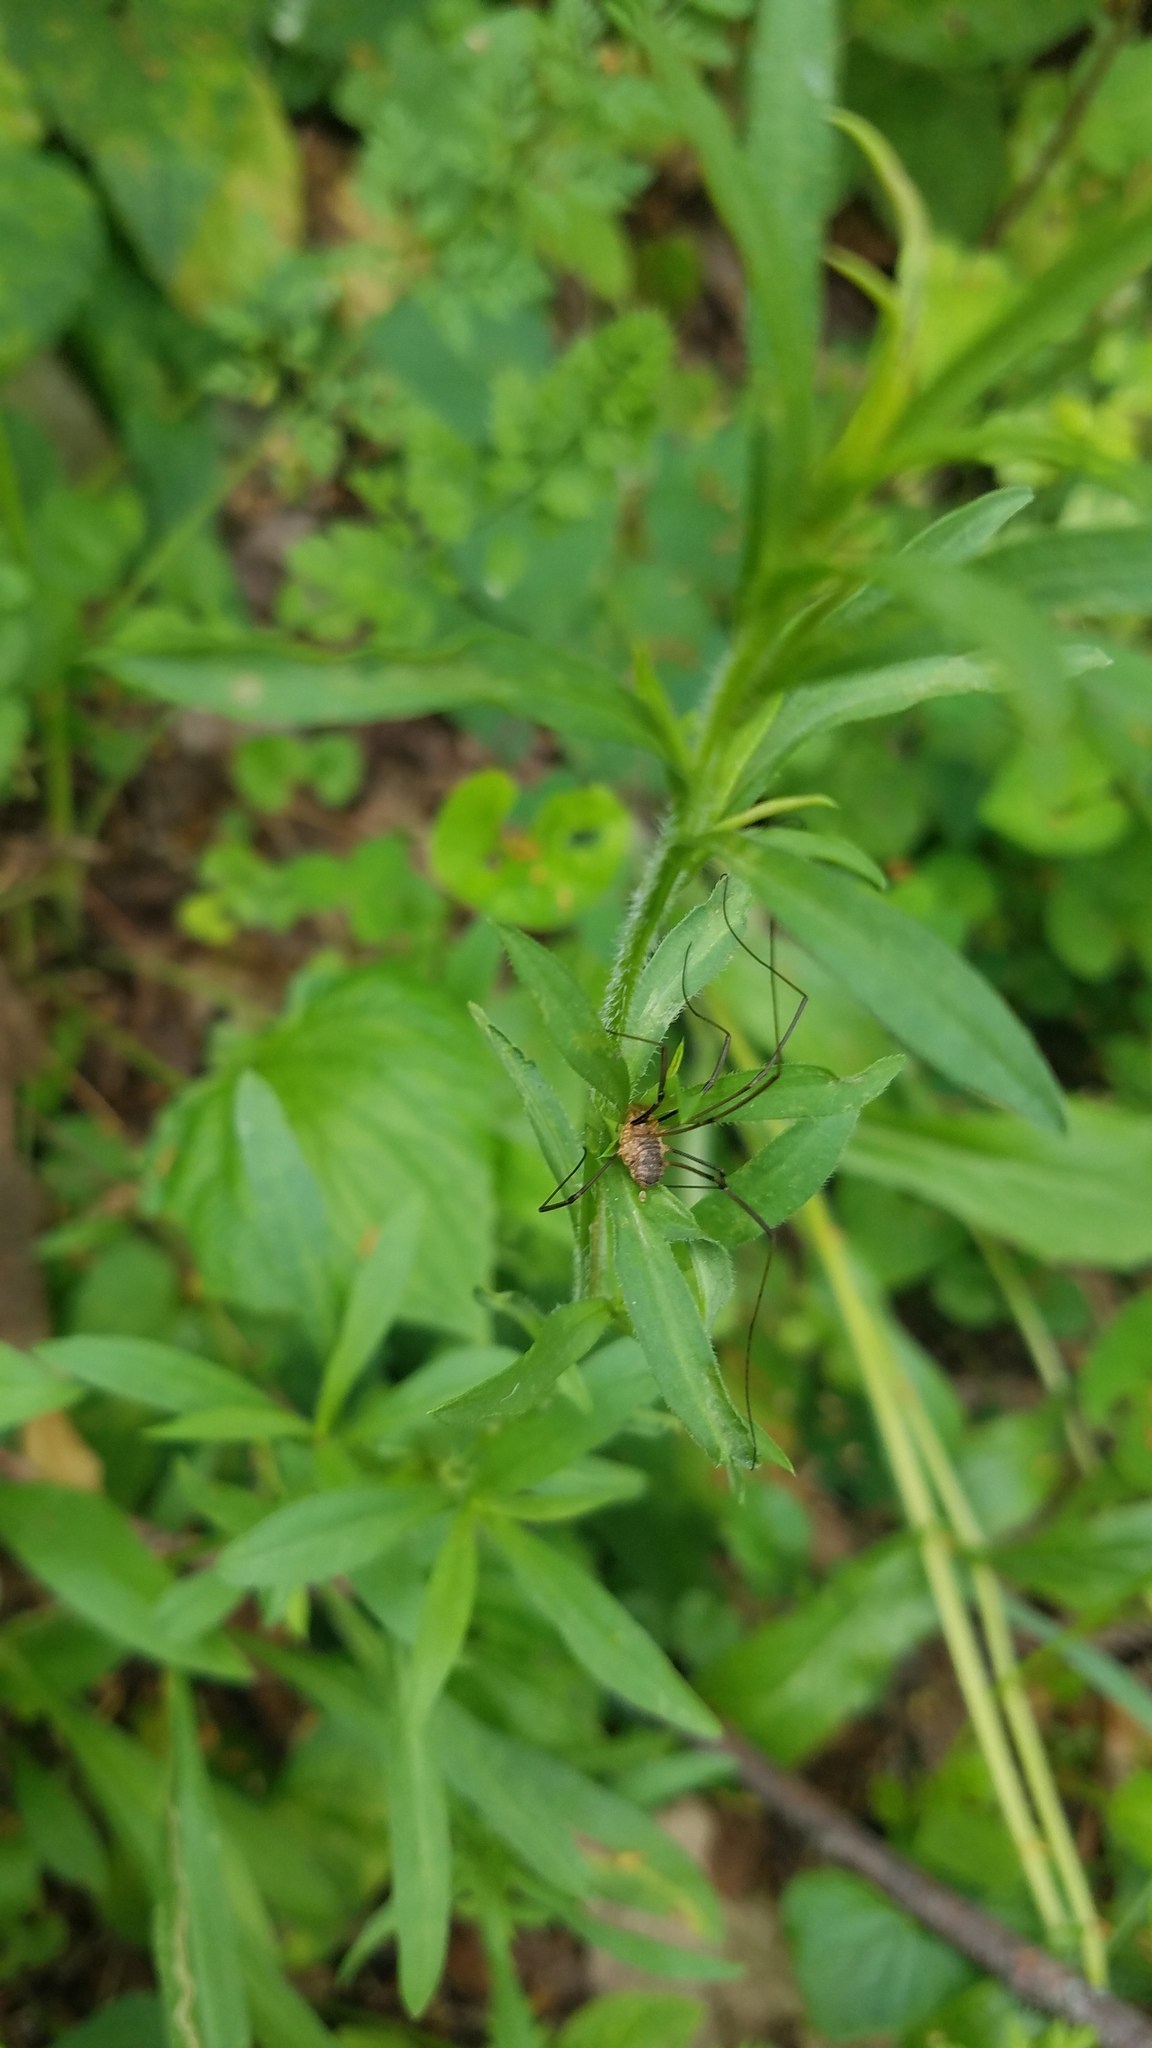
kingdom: Animalia
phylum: Arthropoda
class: Arachnida
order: Opiliones
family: Phalangiidae
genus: Phalangium
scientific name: Phalangium opilio
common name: Daddy longleg
